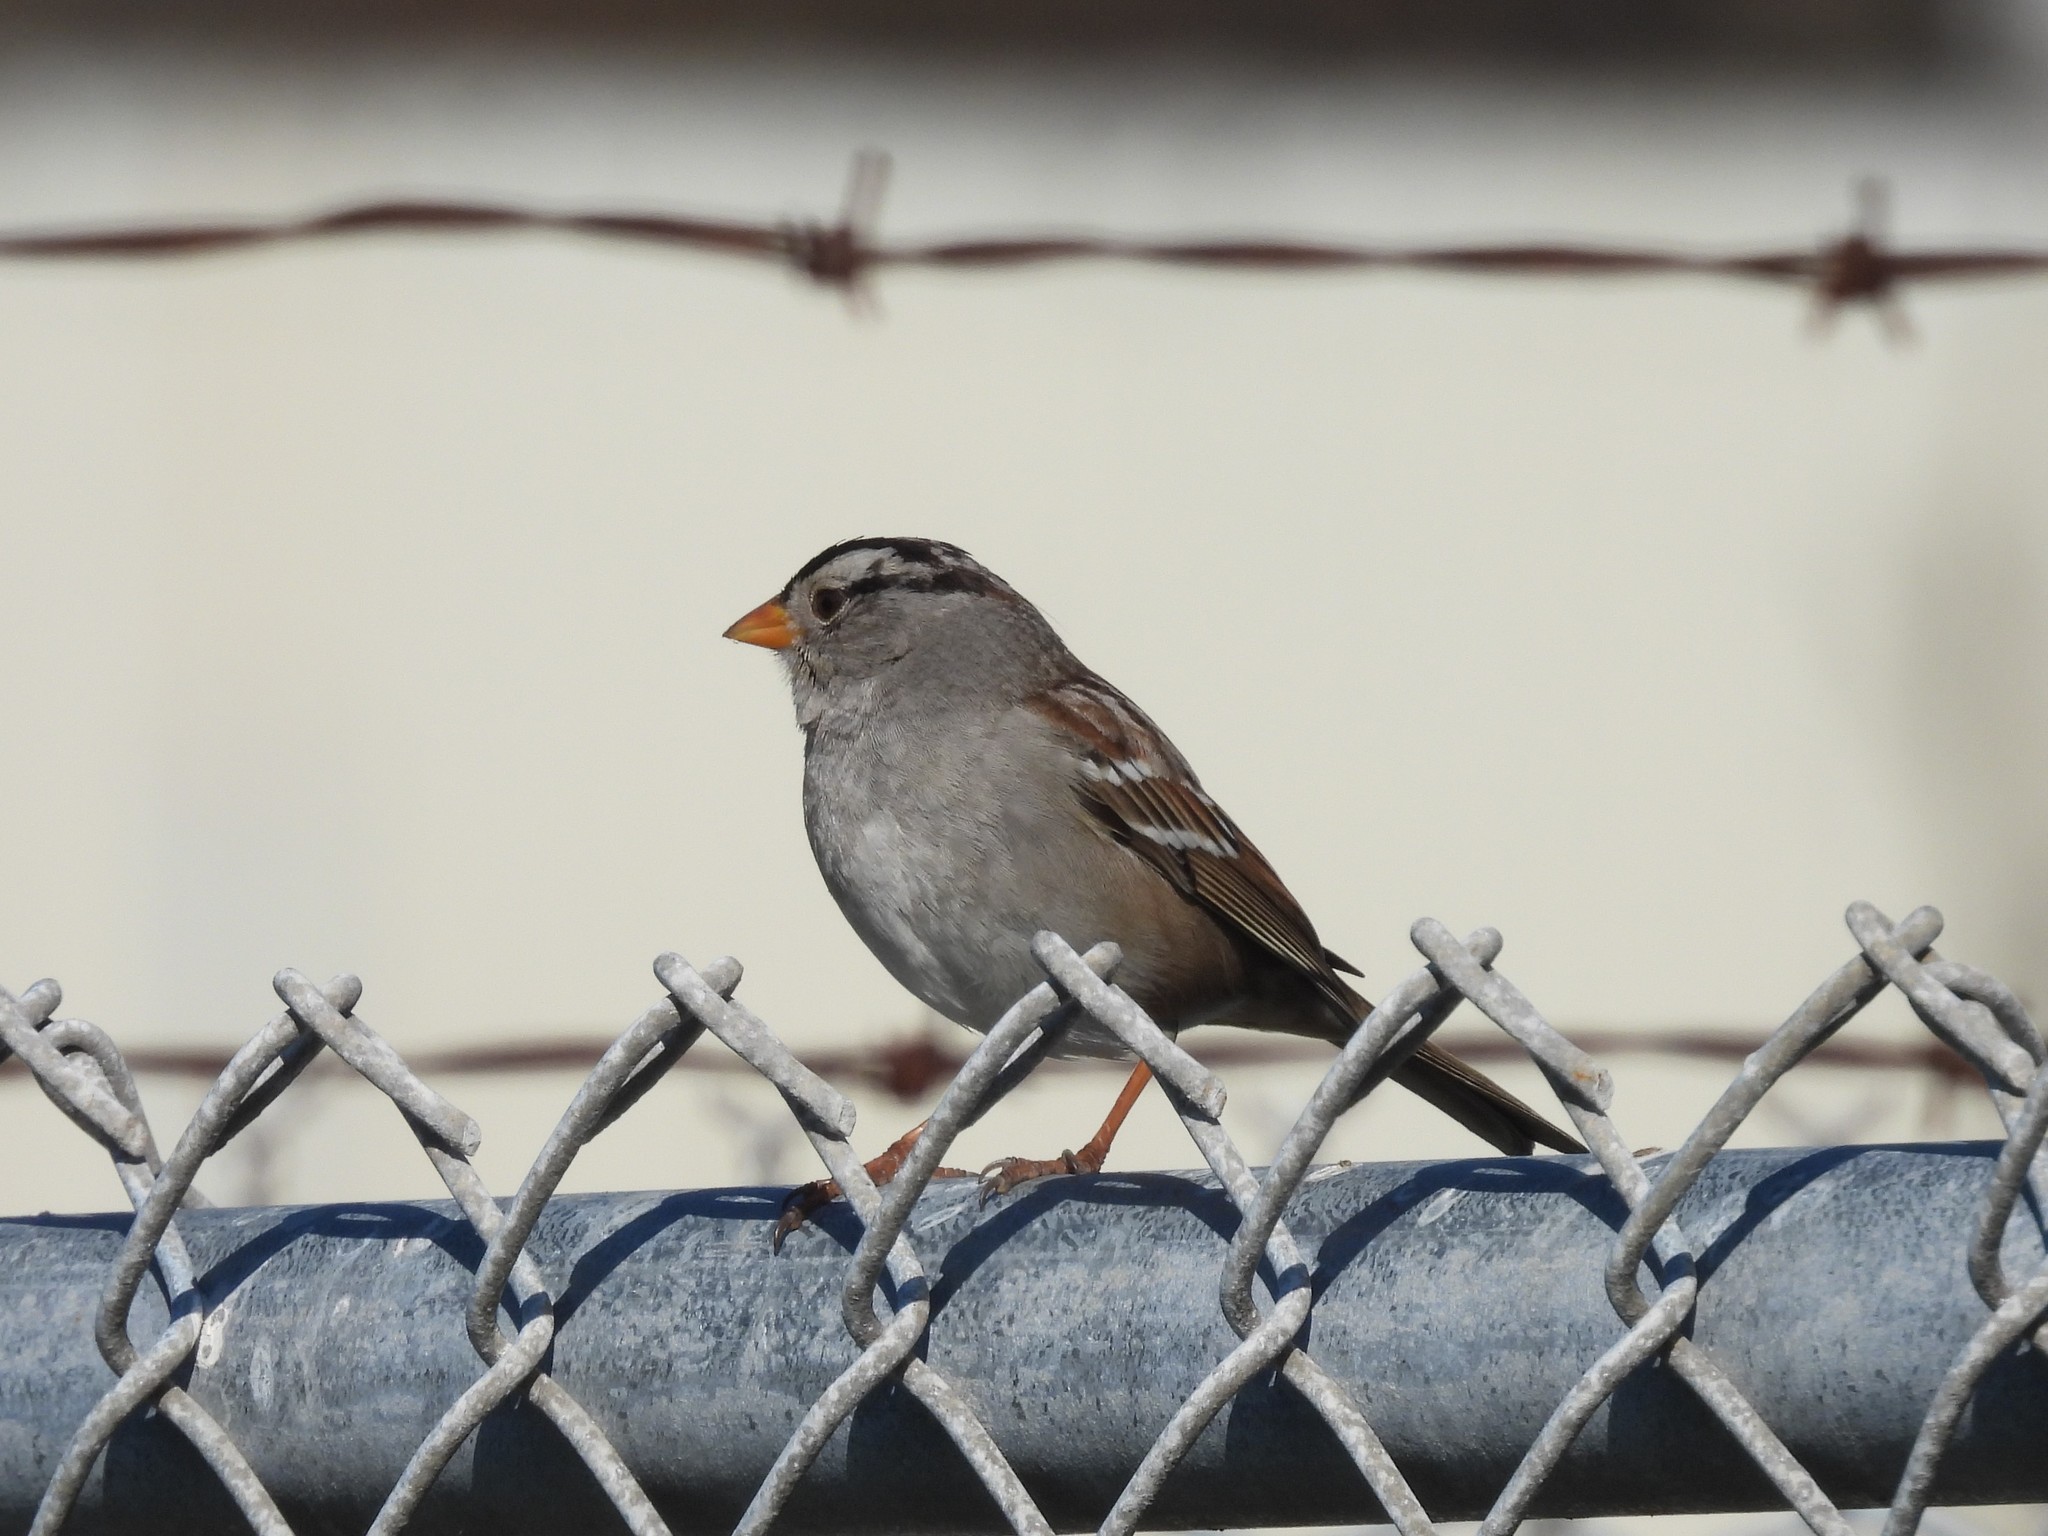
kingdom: Animalia
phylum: Chordata
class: Aves
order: Passeriformes
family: Passerellidae
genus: Zonotrichia
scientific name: Zonotrichia leucophrys
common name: White-crowned sparrow
